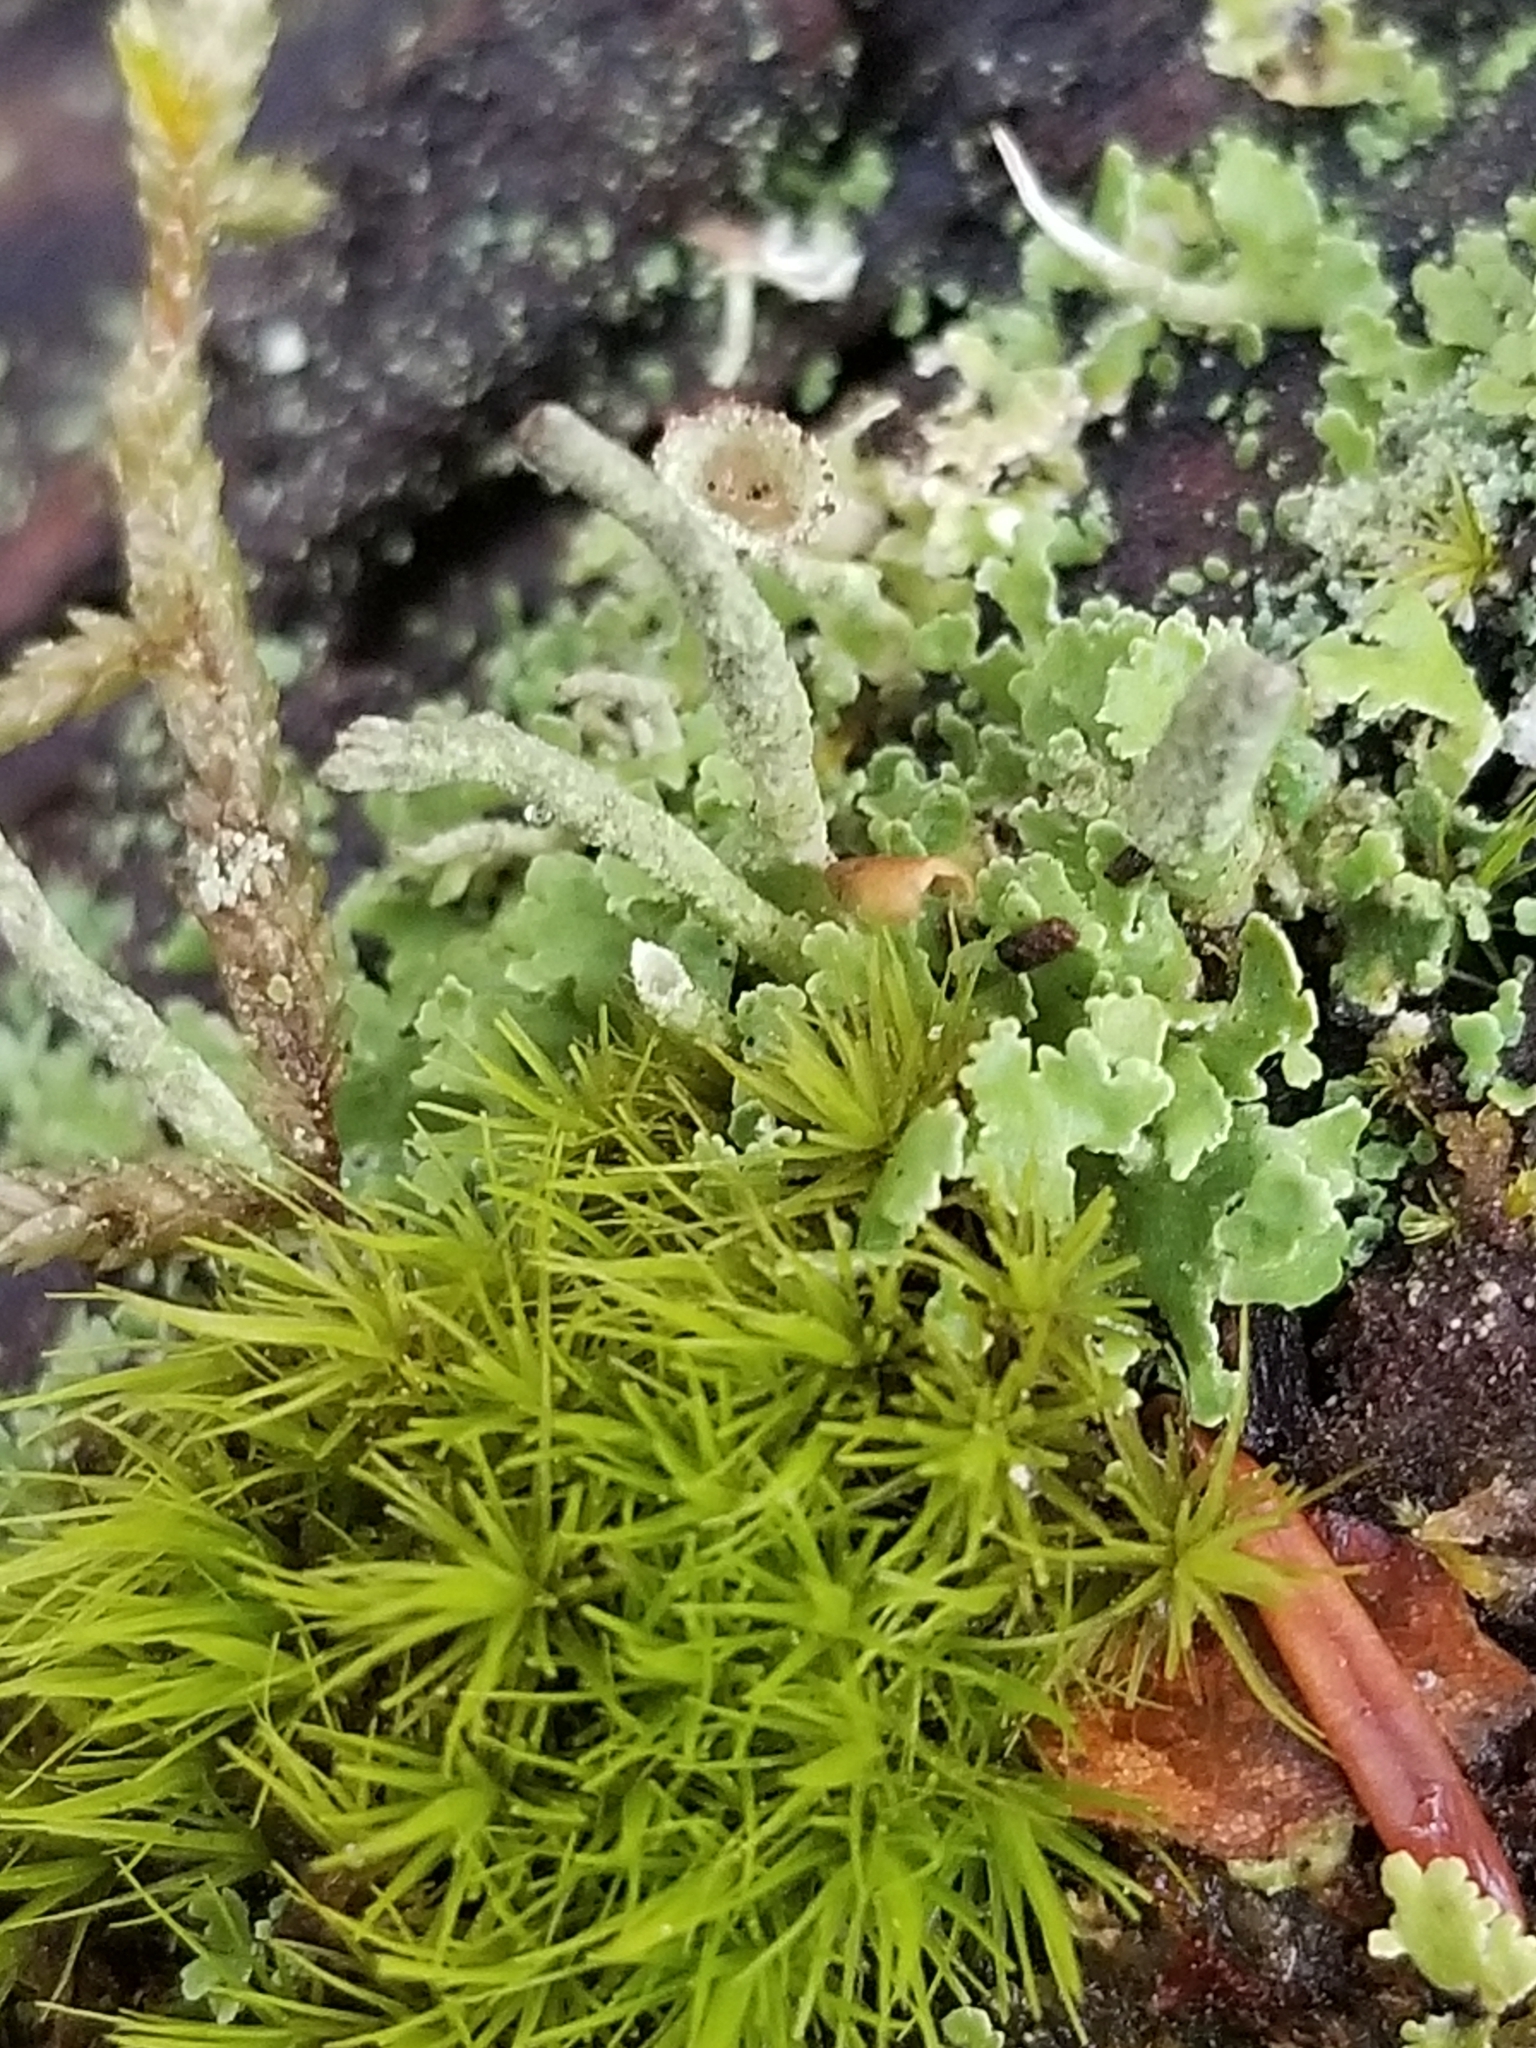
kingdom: Fungi
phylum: Ascomycota
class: Lecanoromycetes
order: Lecanorales
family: Cladoniaceae
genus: Cladonia
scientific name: Cladonia coniocraea
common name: Common powderhorn
